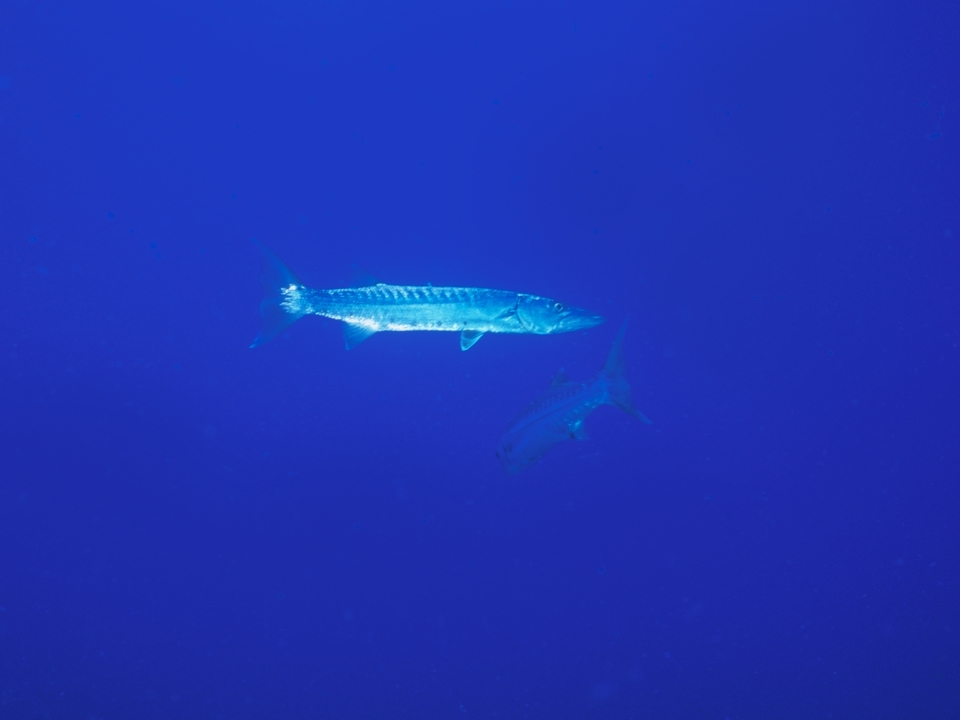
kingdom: Animalia
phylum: Chordata
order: Perciformes
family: Sphyraenidae
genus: Sphyraena
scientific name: Sphyraena barracuda
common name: Great barracuda
